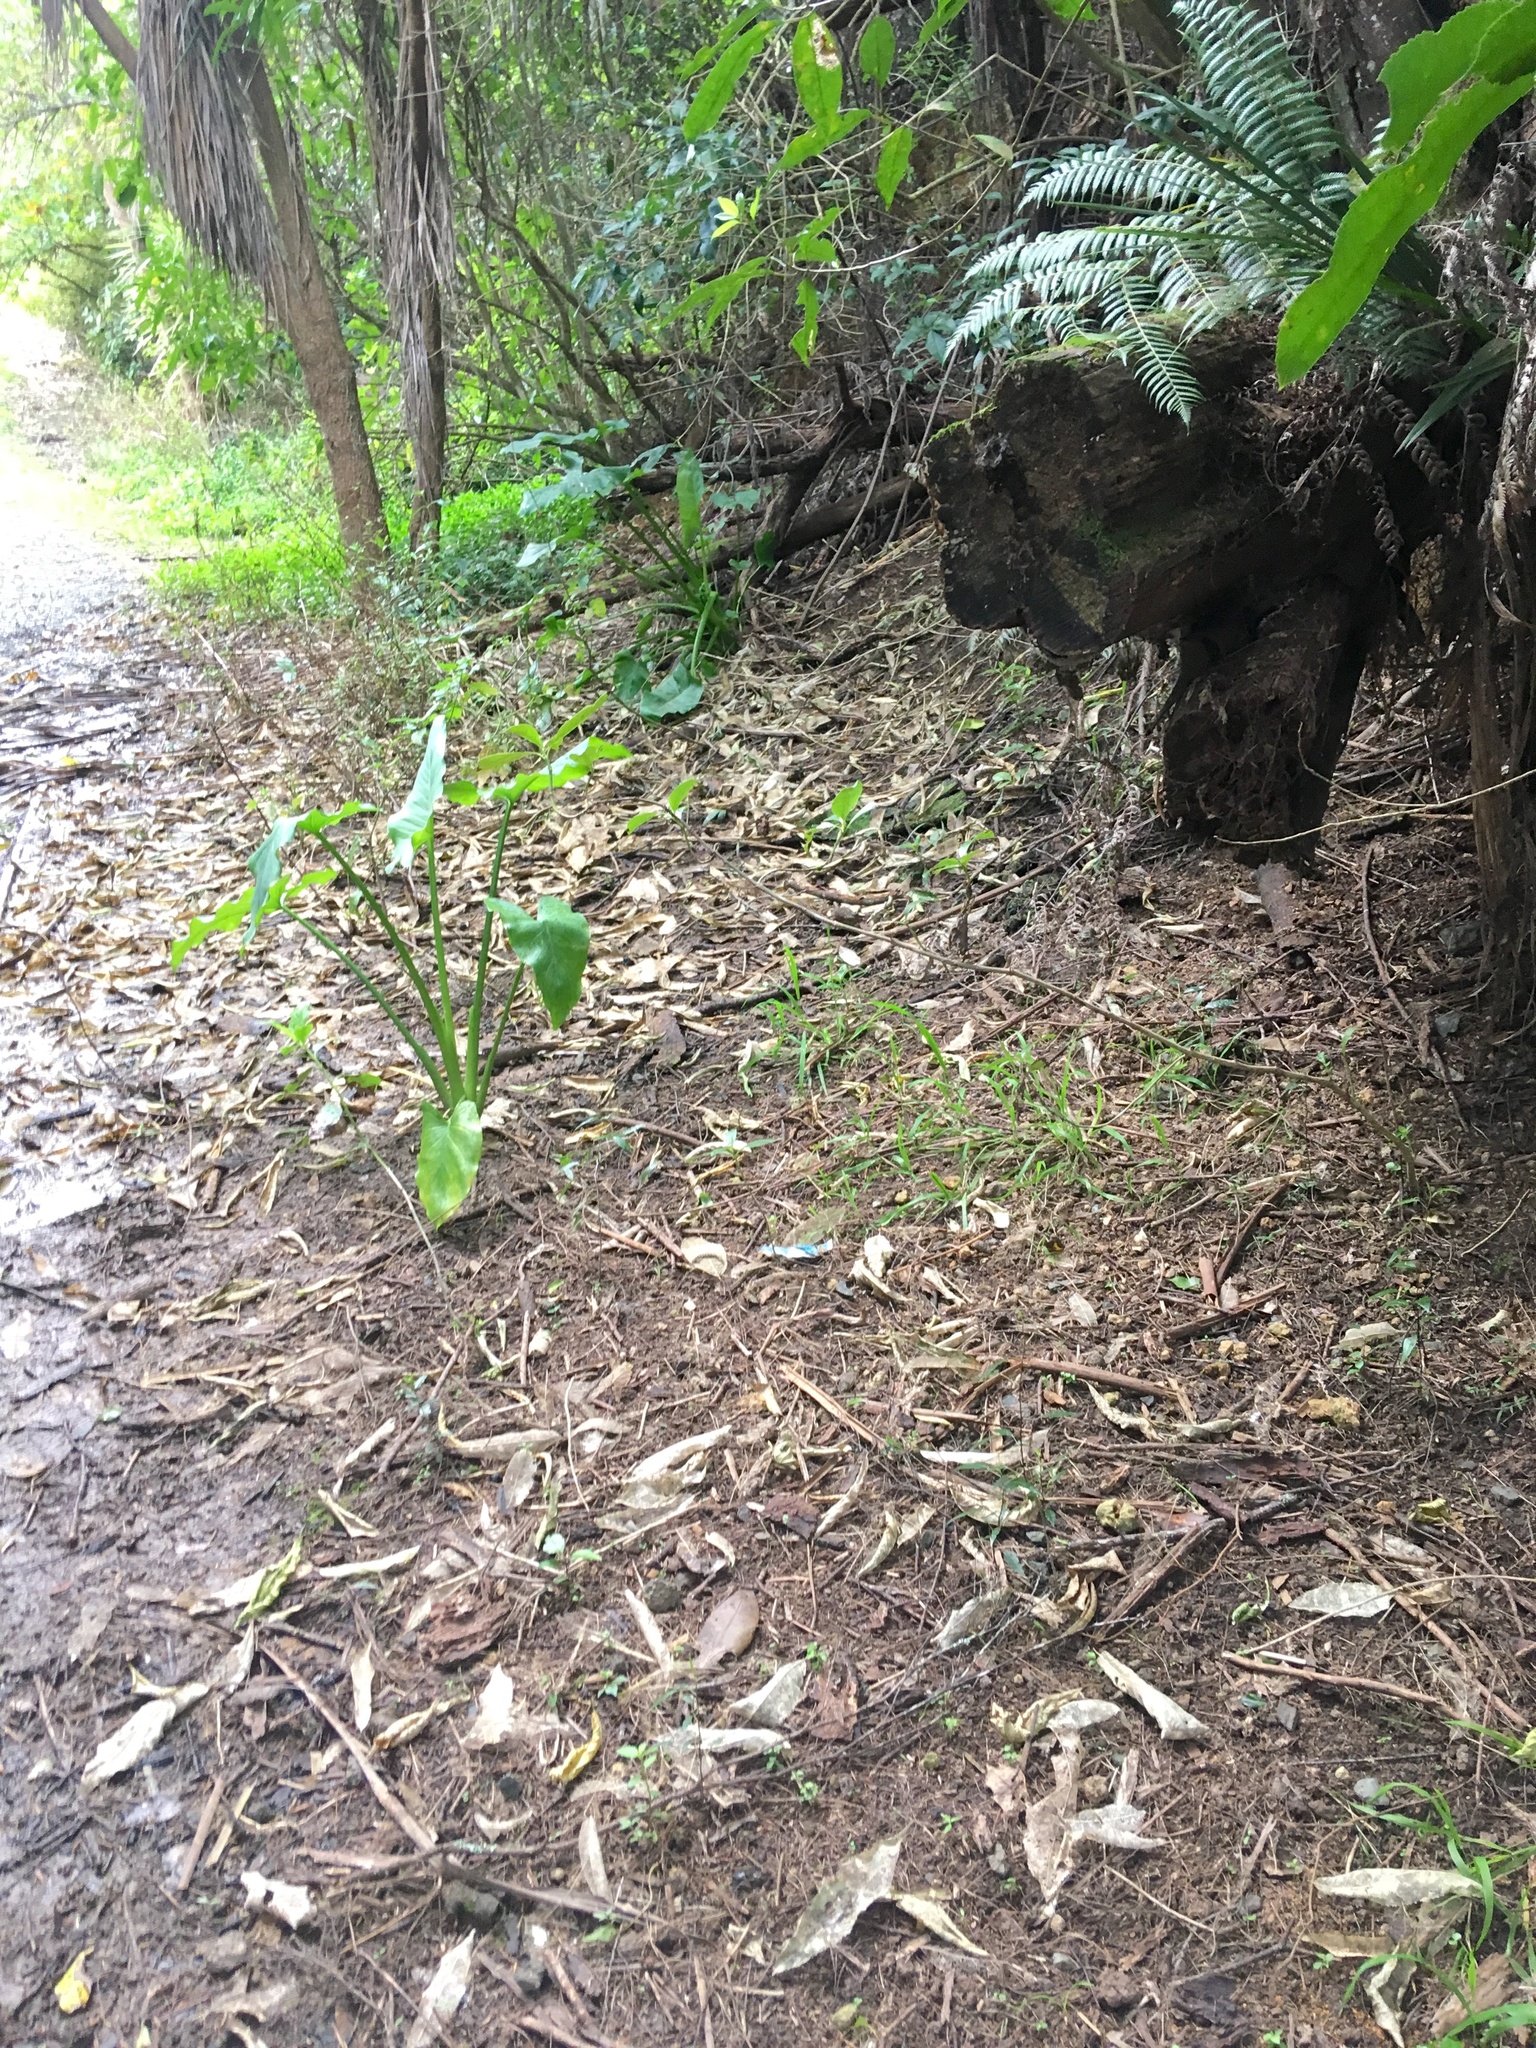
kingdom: Plantae
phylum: Tracheophyta
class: Liliopsida
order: Alismatales
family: Araceae
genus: Zantedeschia
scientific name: Zantedeschia aethiopica
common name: Altar-lily
